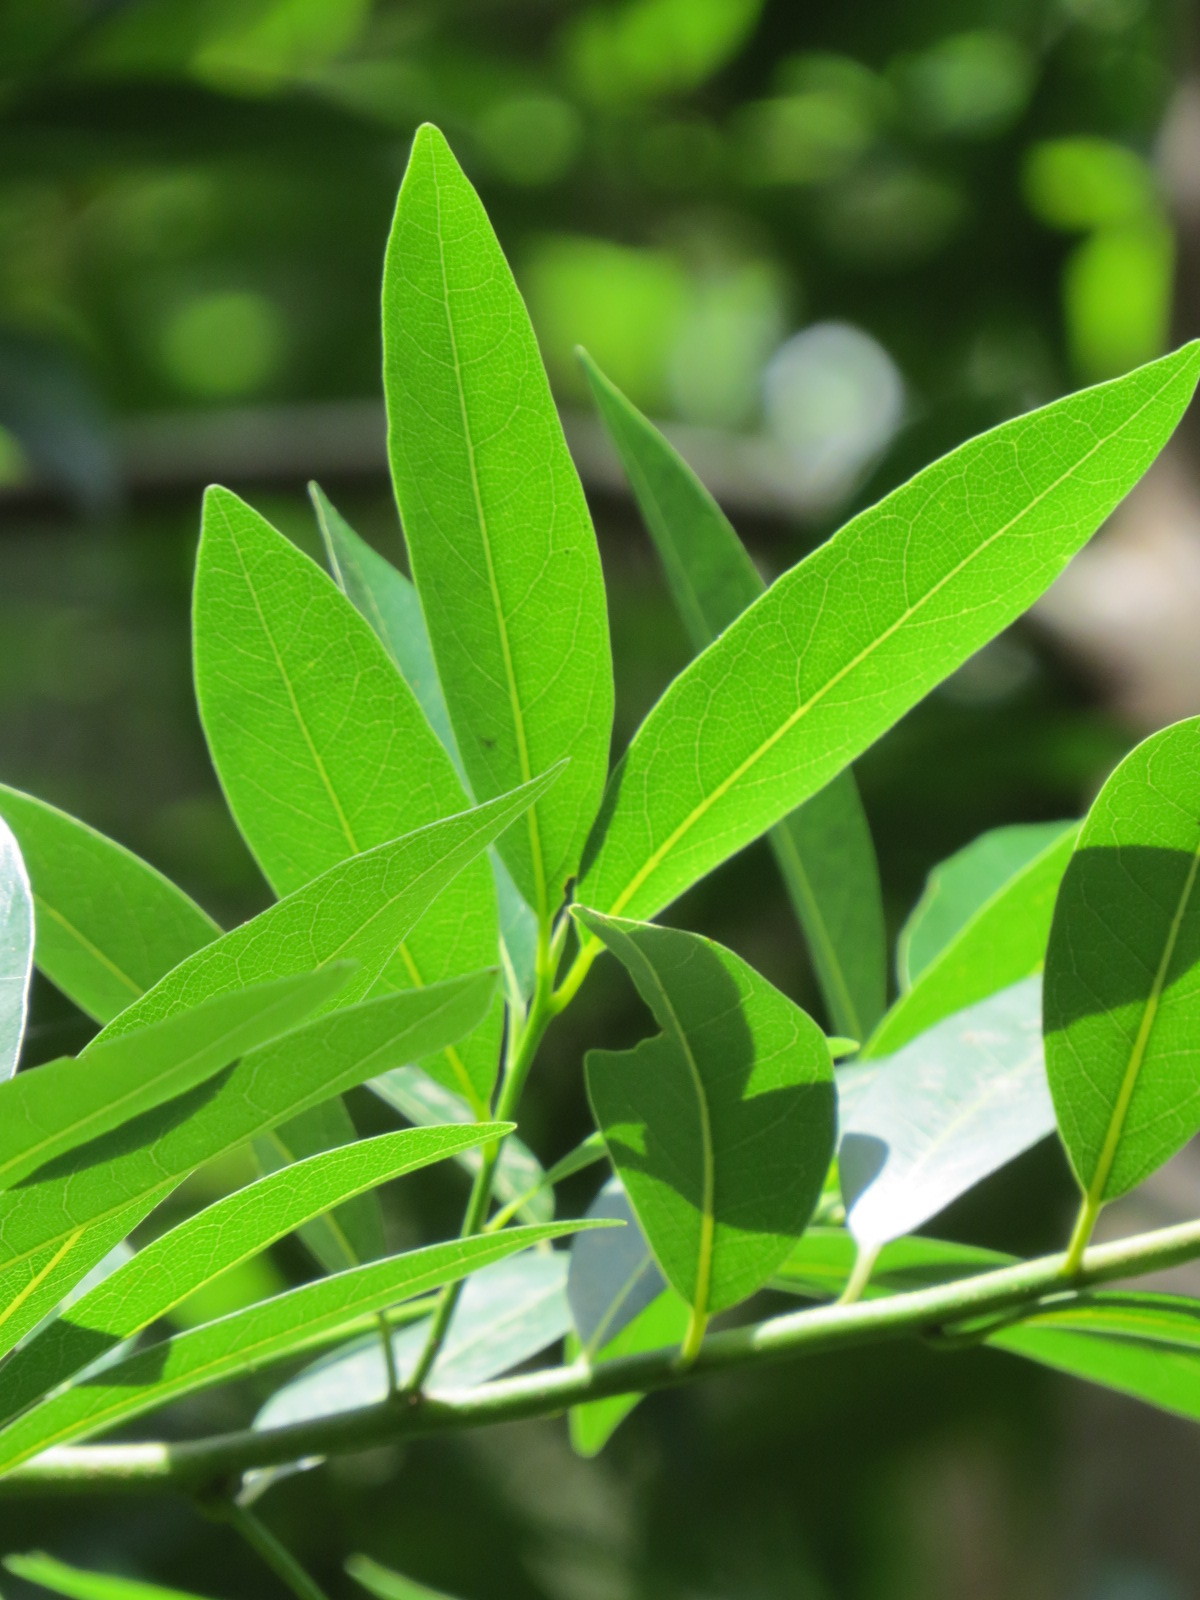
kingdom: Plantae
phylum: Tracheophyta
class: Magnoliopsida
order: Laurales
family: Lauraceae
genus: Umbellularia
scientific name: Umbellularia californica
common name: California bay
